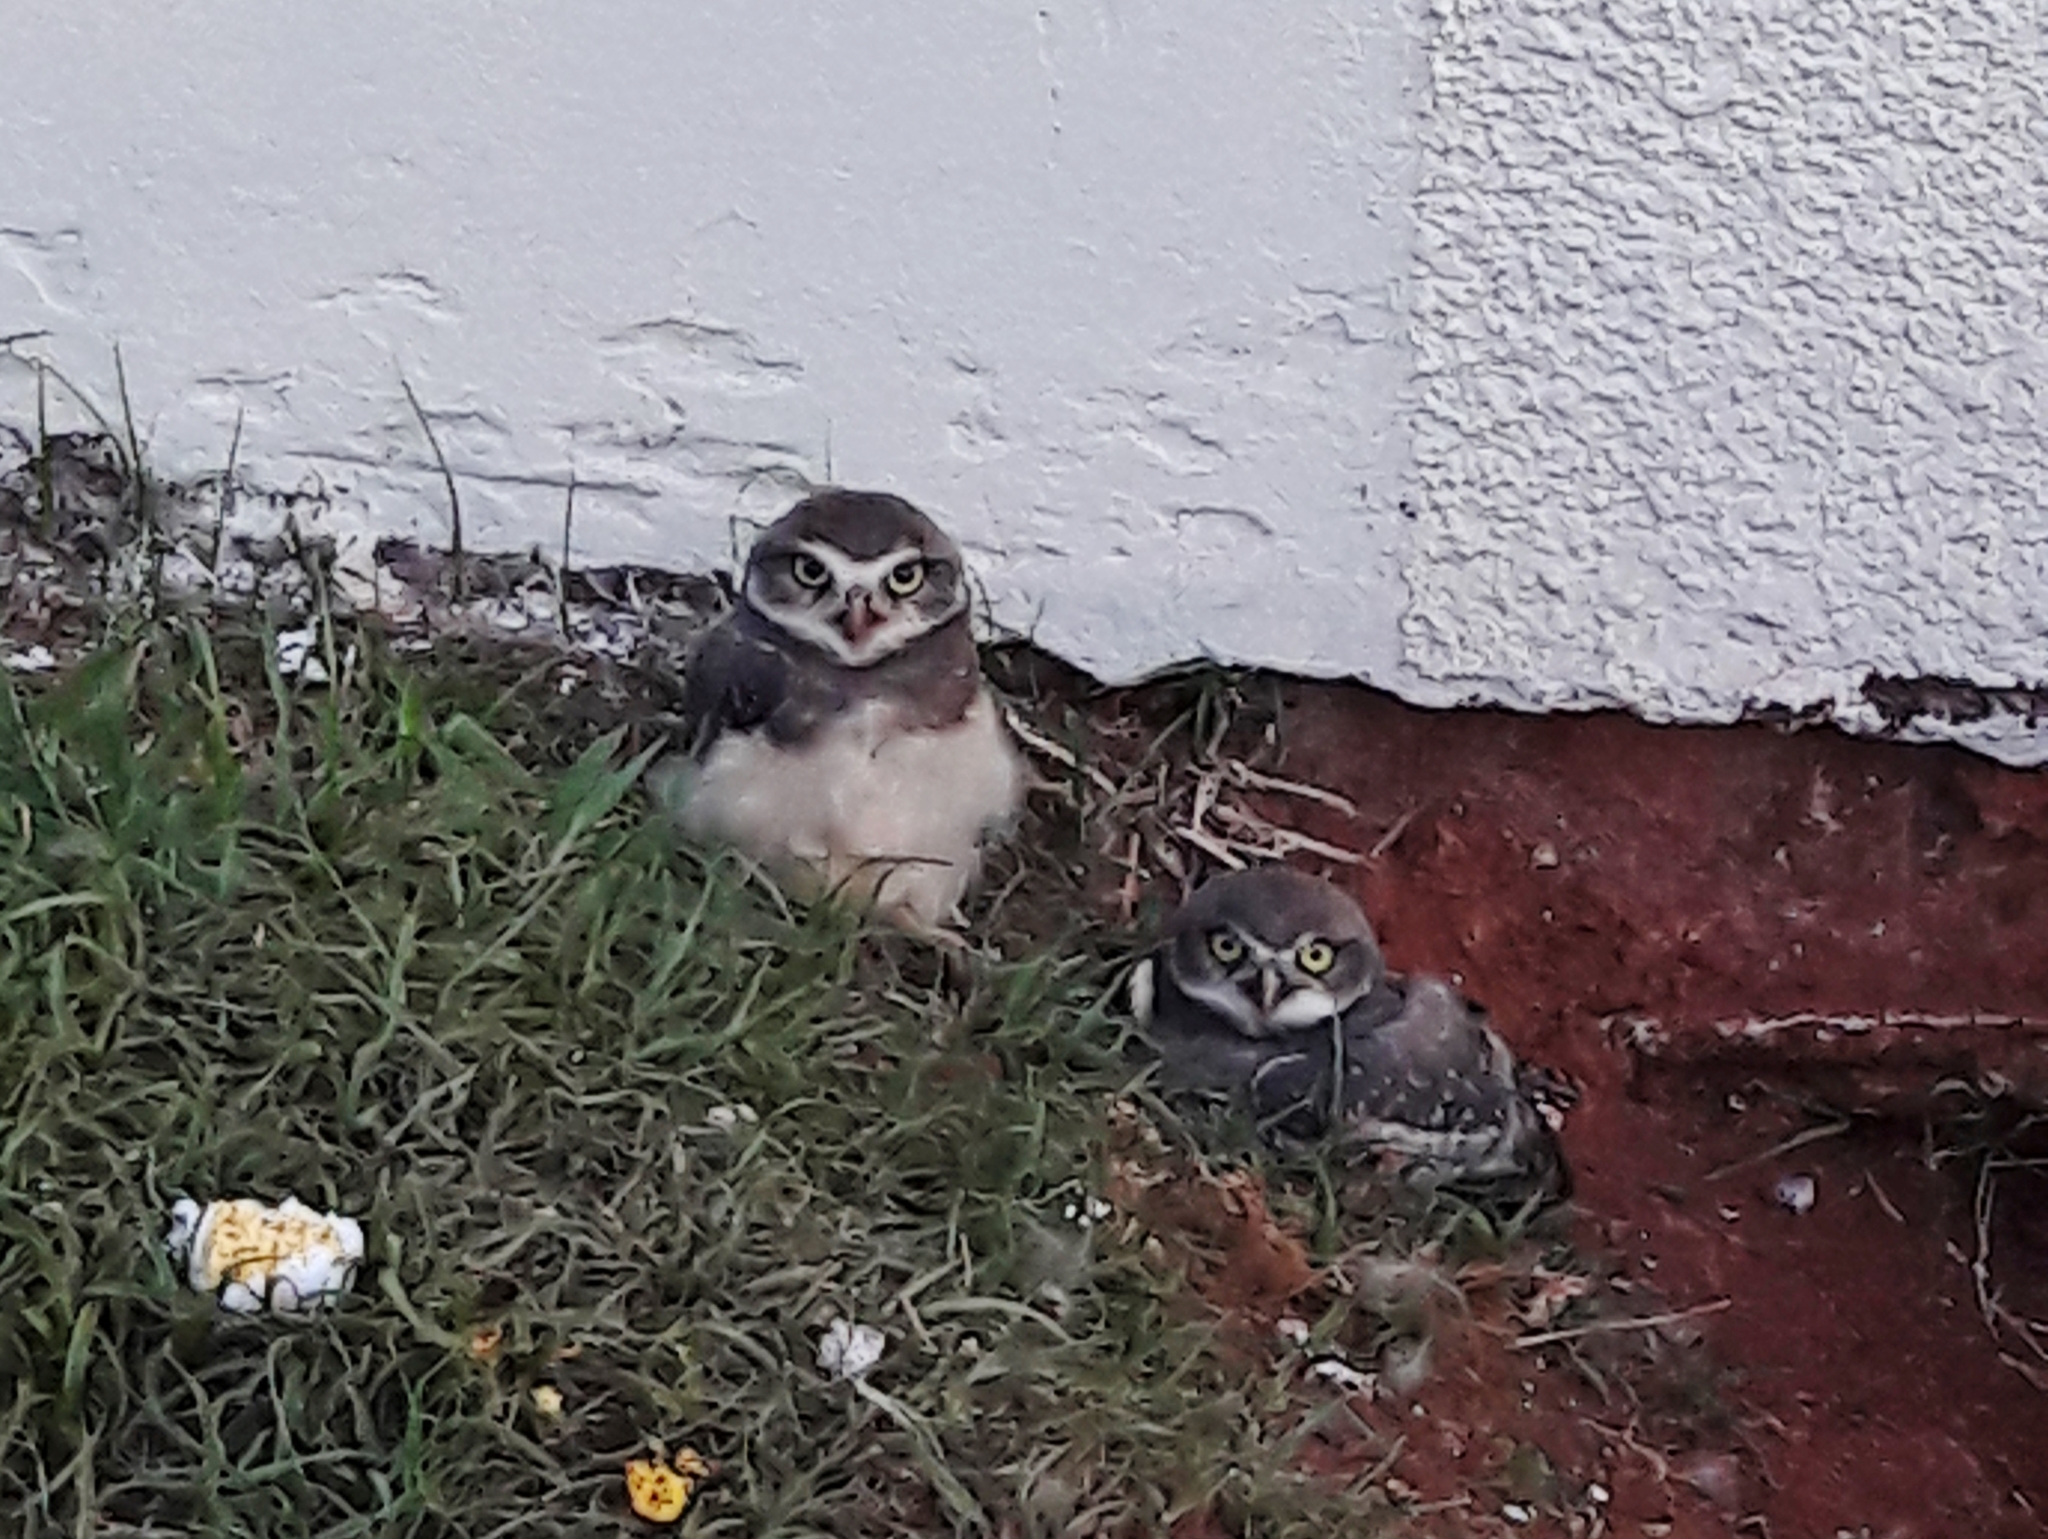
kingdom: Animalia
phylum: Chordata
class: Aves
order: Strigiformes
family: Strigidae
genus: Athene
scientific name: Athene cunicularia
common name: Burrowing owl
